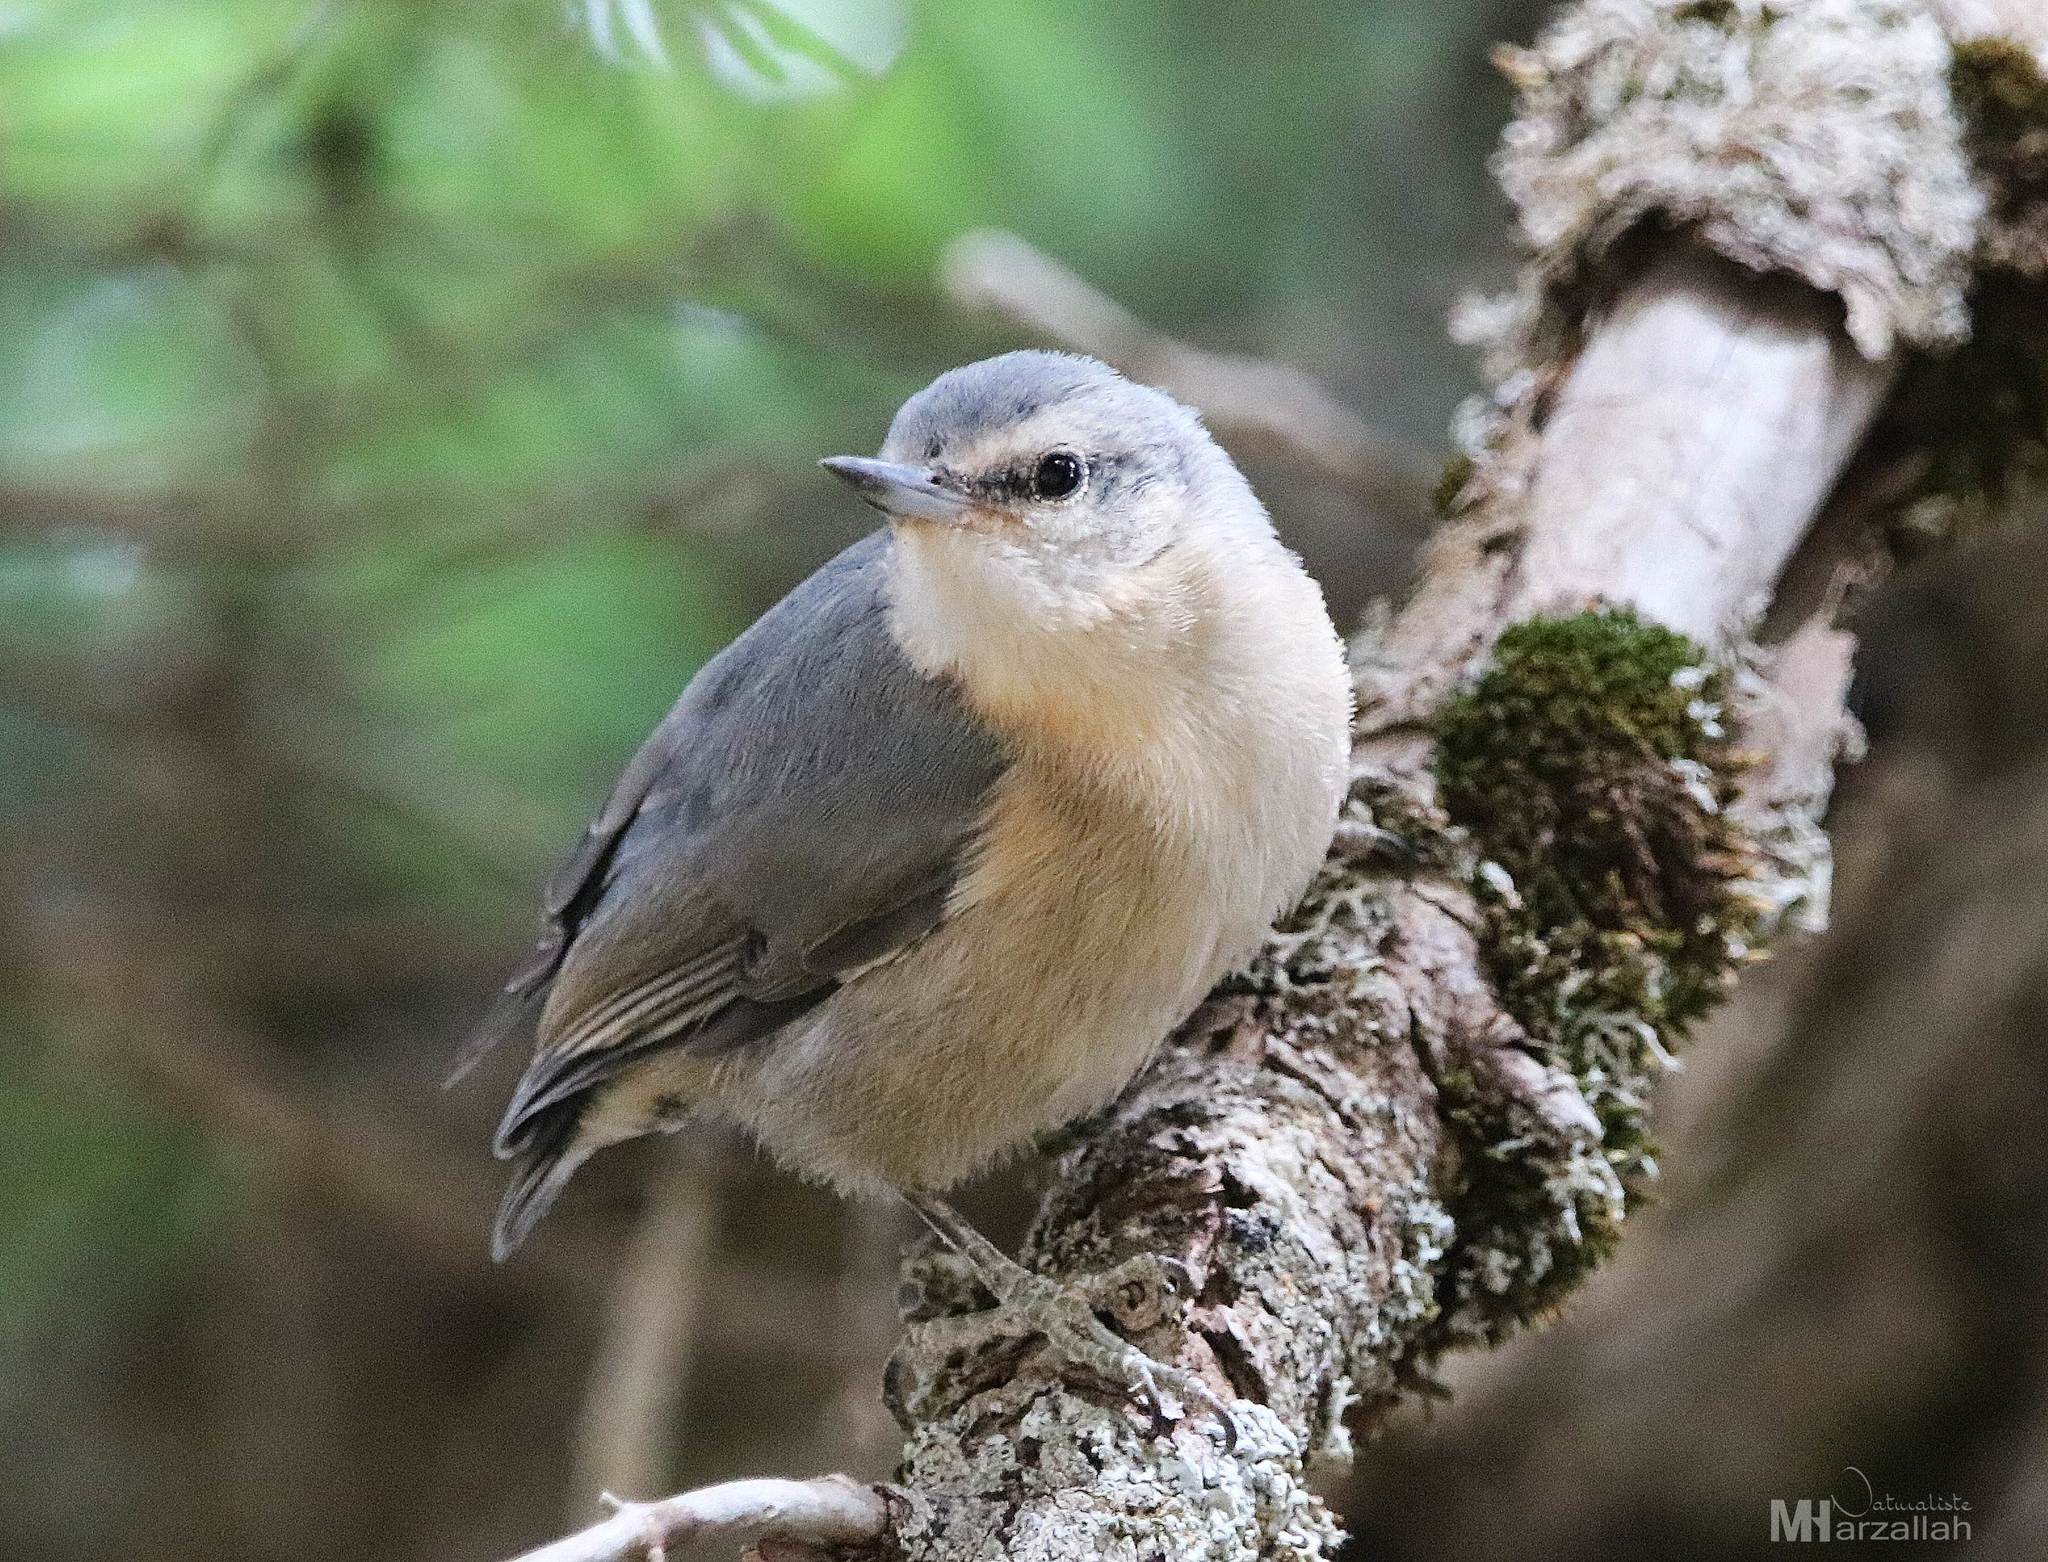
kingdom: Animalia
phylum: Chordata
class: Aves
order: Passeriformes
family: Sittidae
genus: Sitta
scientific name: Sitta ledanti
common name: Algerian nuthatch
